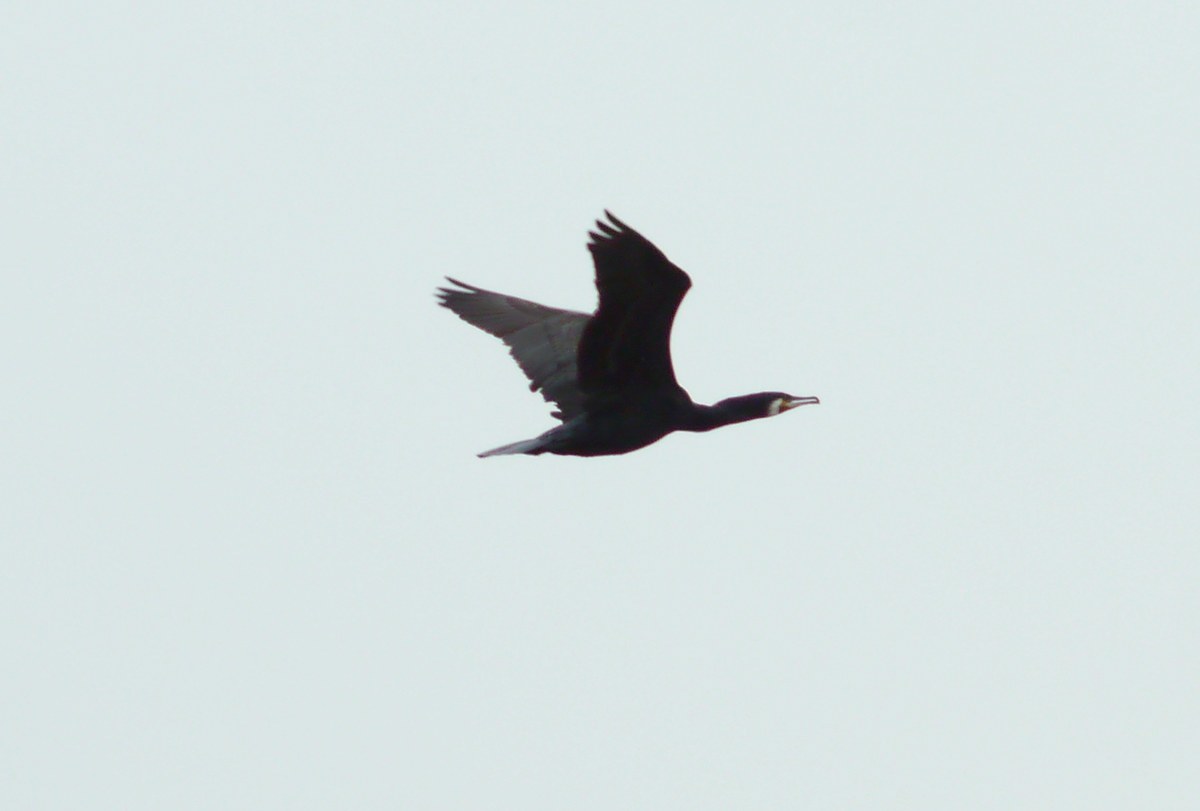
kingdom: Animalia
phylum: Chordata
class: Aves
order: Suliformes
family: Phalacrocoracidae
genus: Phalacrocorax
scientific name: Phalacrocorax carbo
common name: Great cormorant
